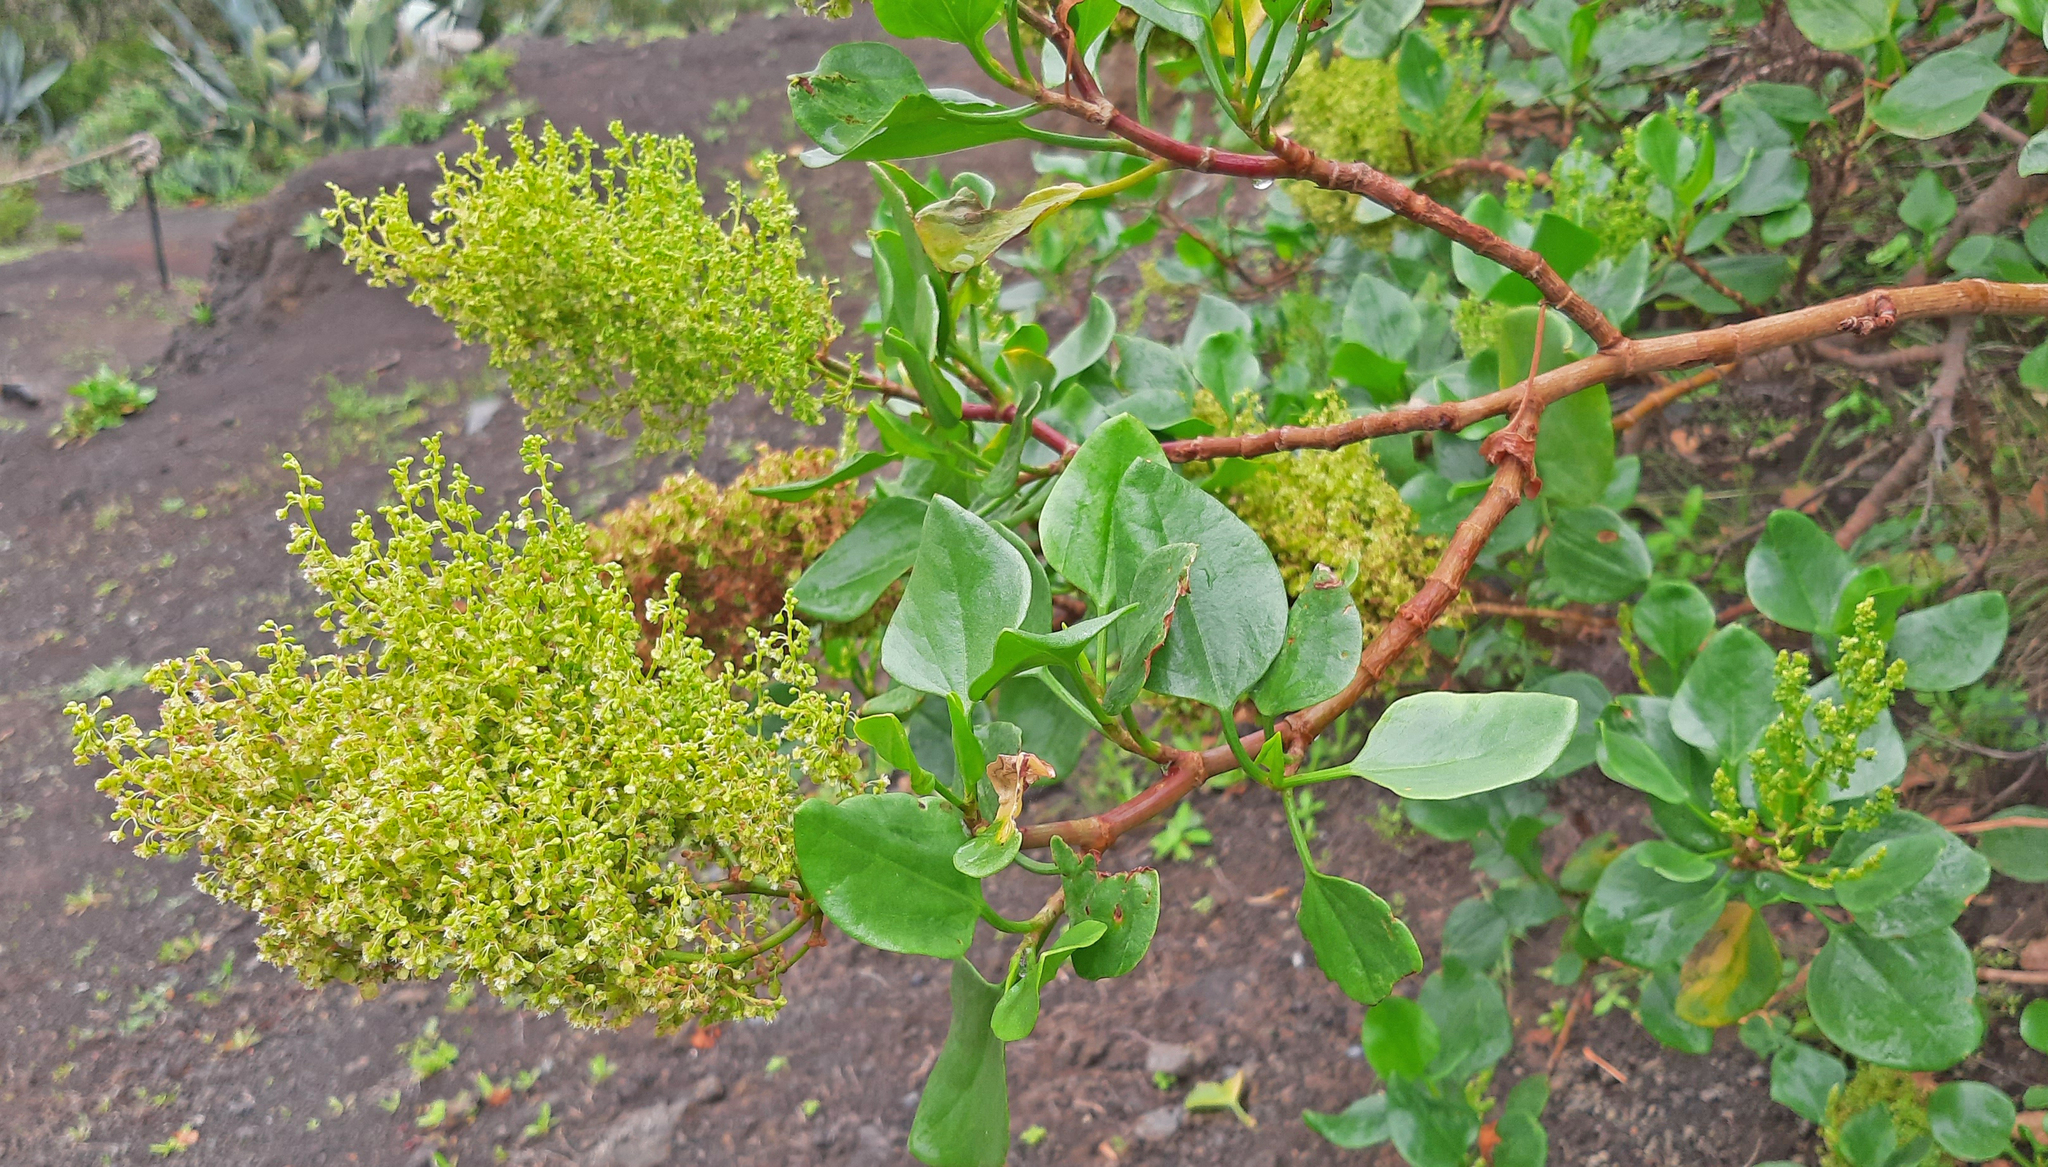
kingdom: Plantae
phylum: Tracheophyta
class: Magnoliopsida
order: Caryophyllales
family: Polygonaceae
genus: Rumex
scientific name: Rumex lunaria
